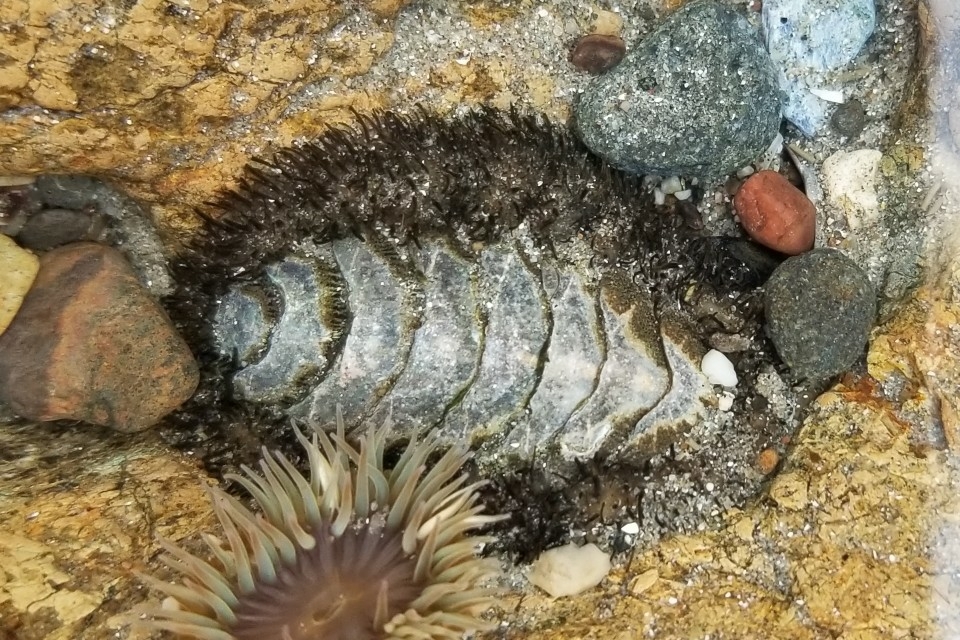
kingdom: Animalia
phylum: Mollusca
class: Polyplacophora
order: Chitonida
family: Mopaliidae
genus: Mopalia
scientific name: Mopalia muscosa
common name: Mossy chiton
